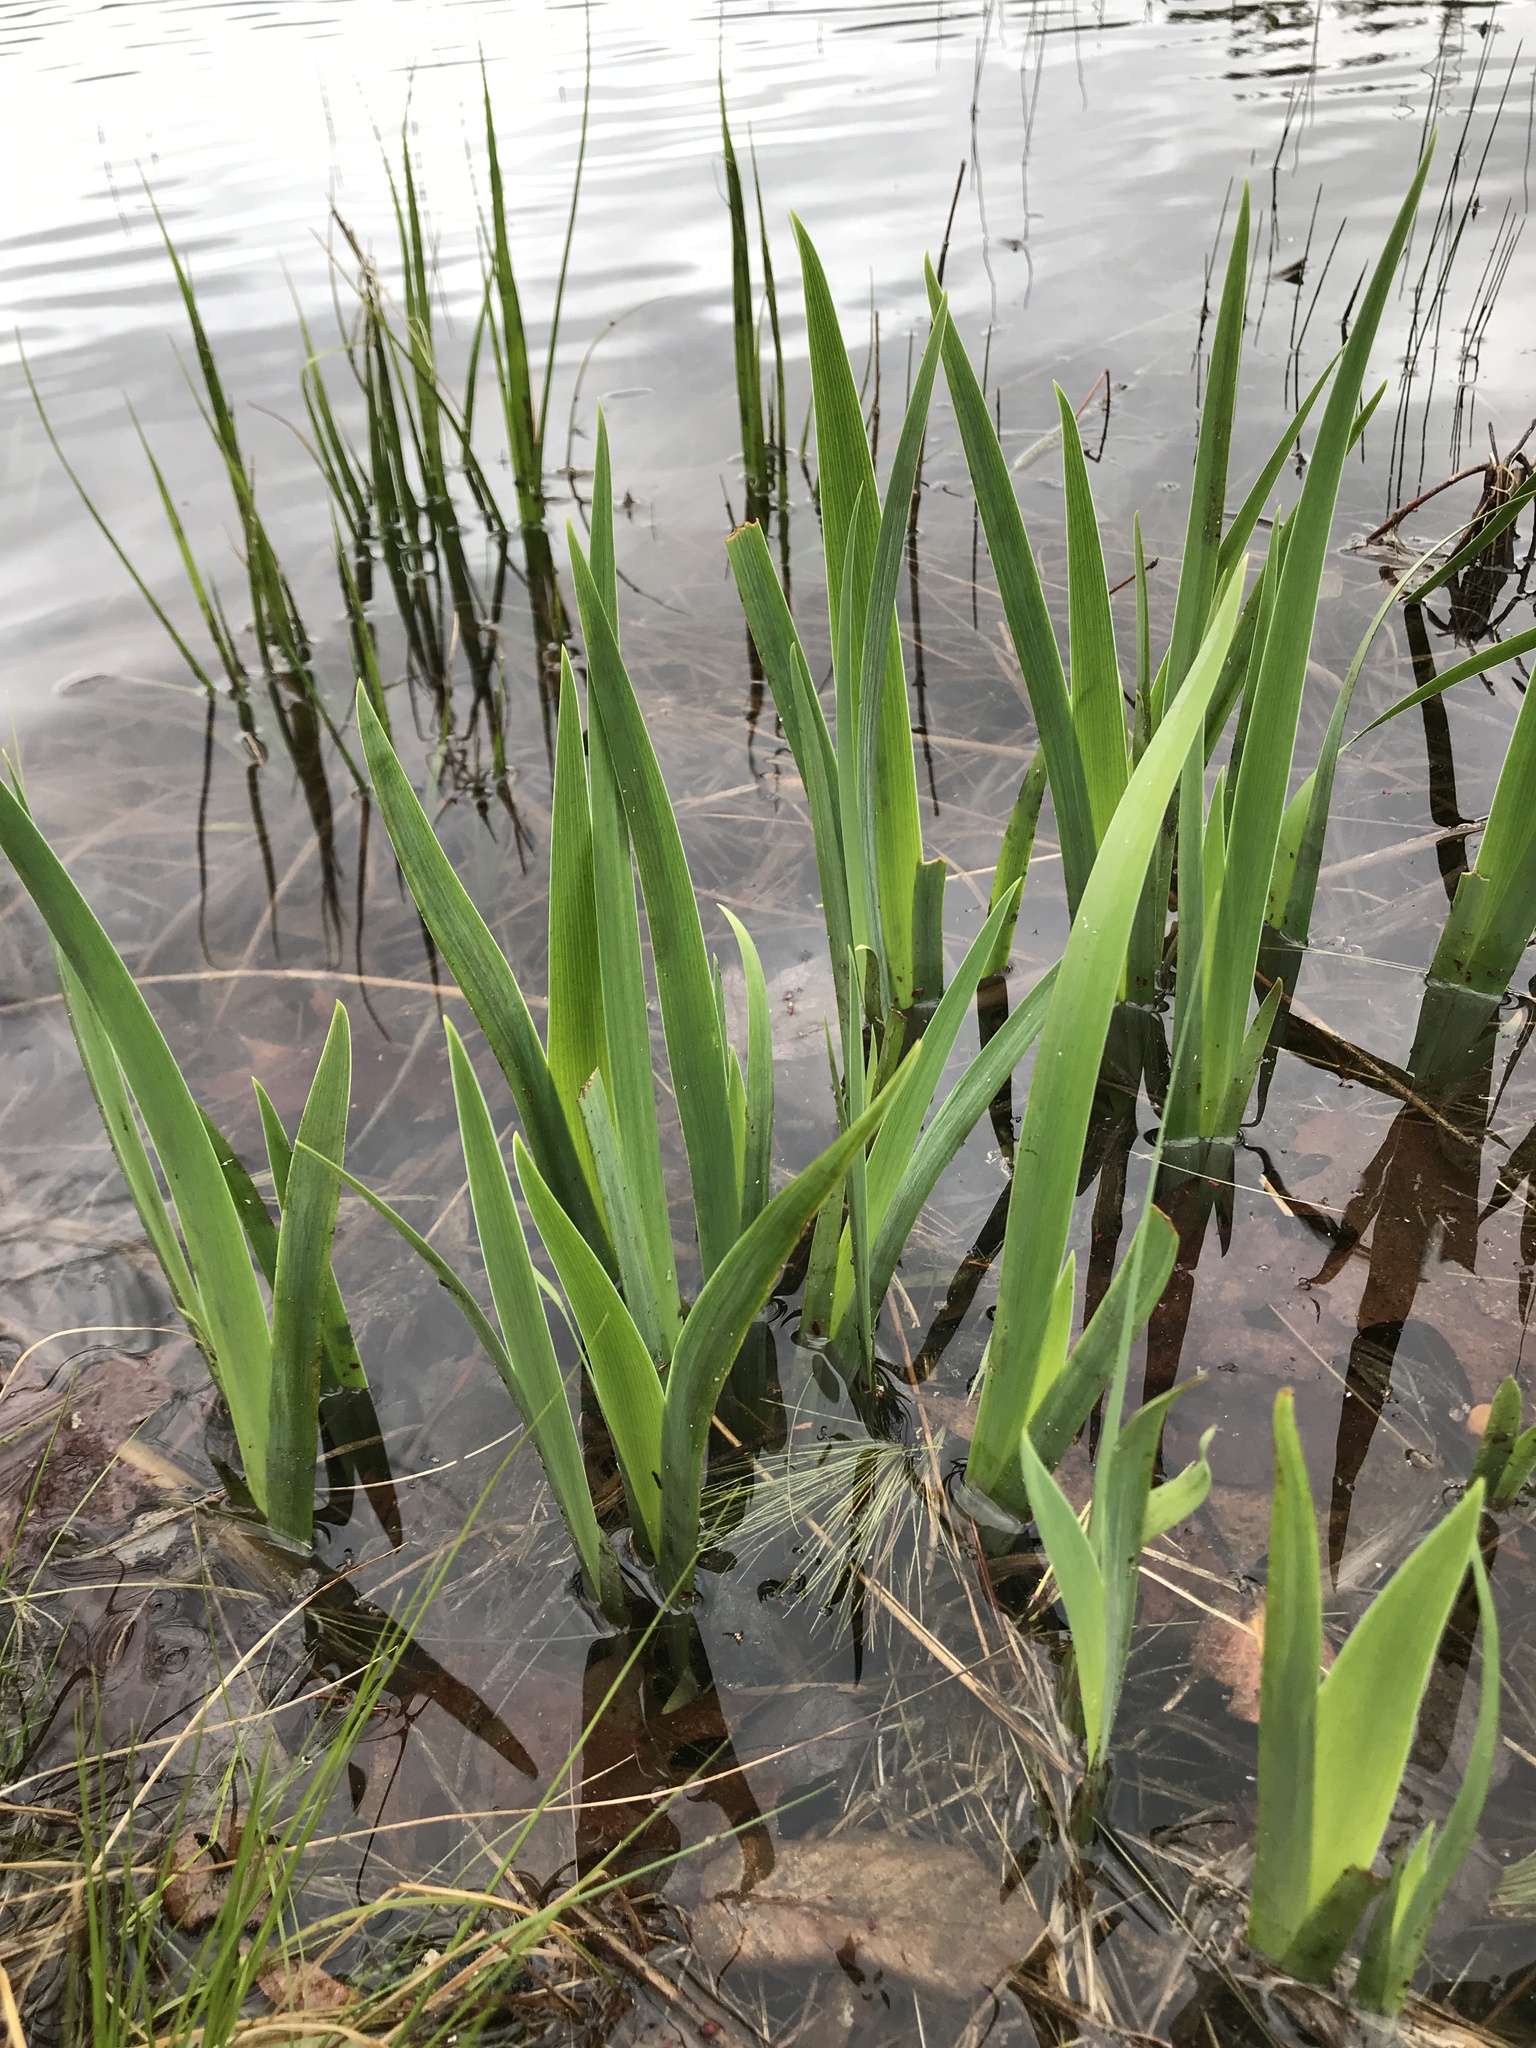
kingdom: Plantae
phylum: Tracheophyta
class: Liliopsida
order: Asparagales
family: Iridaceae
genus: Iris
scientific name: Iris versicolor
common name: Purple iris
